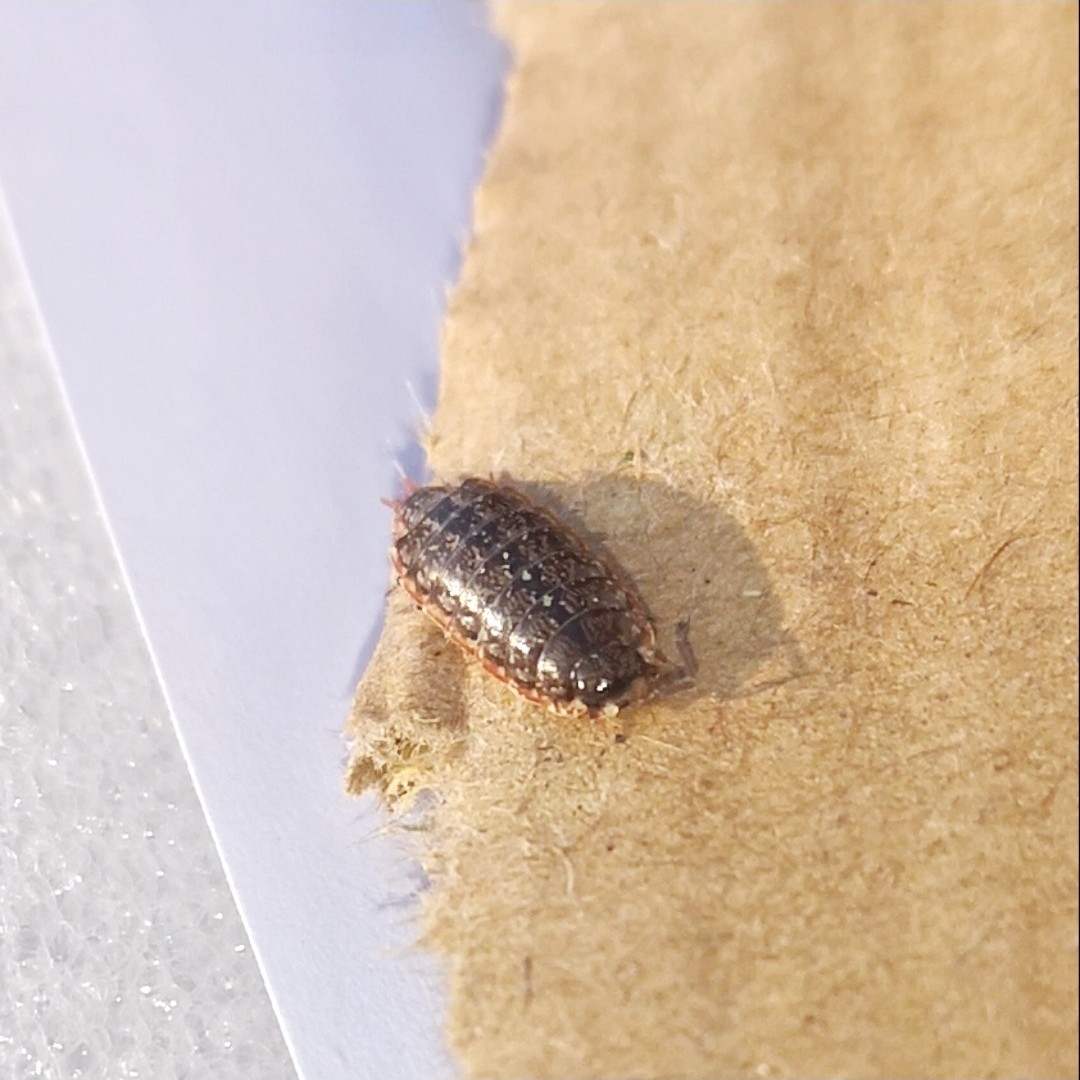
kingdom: Animalia
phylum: Arthropoda
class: Malacostraca
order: Isopoda
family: Philosciidae
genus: Philoscia
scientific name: Philoscia muscorum
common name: Common striped woodlouse
